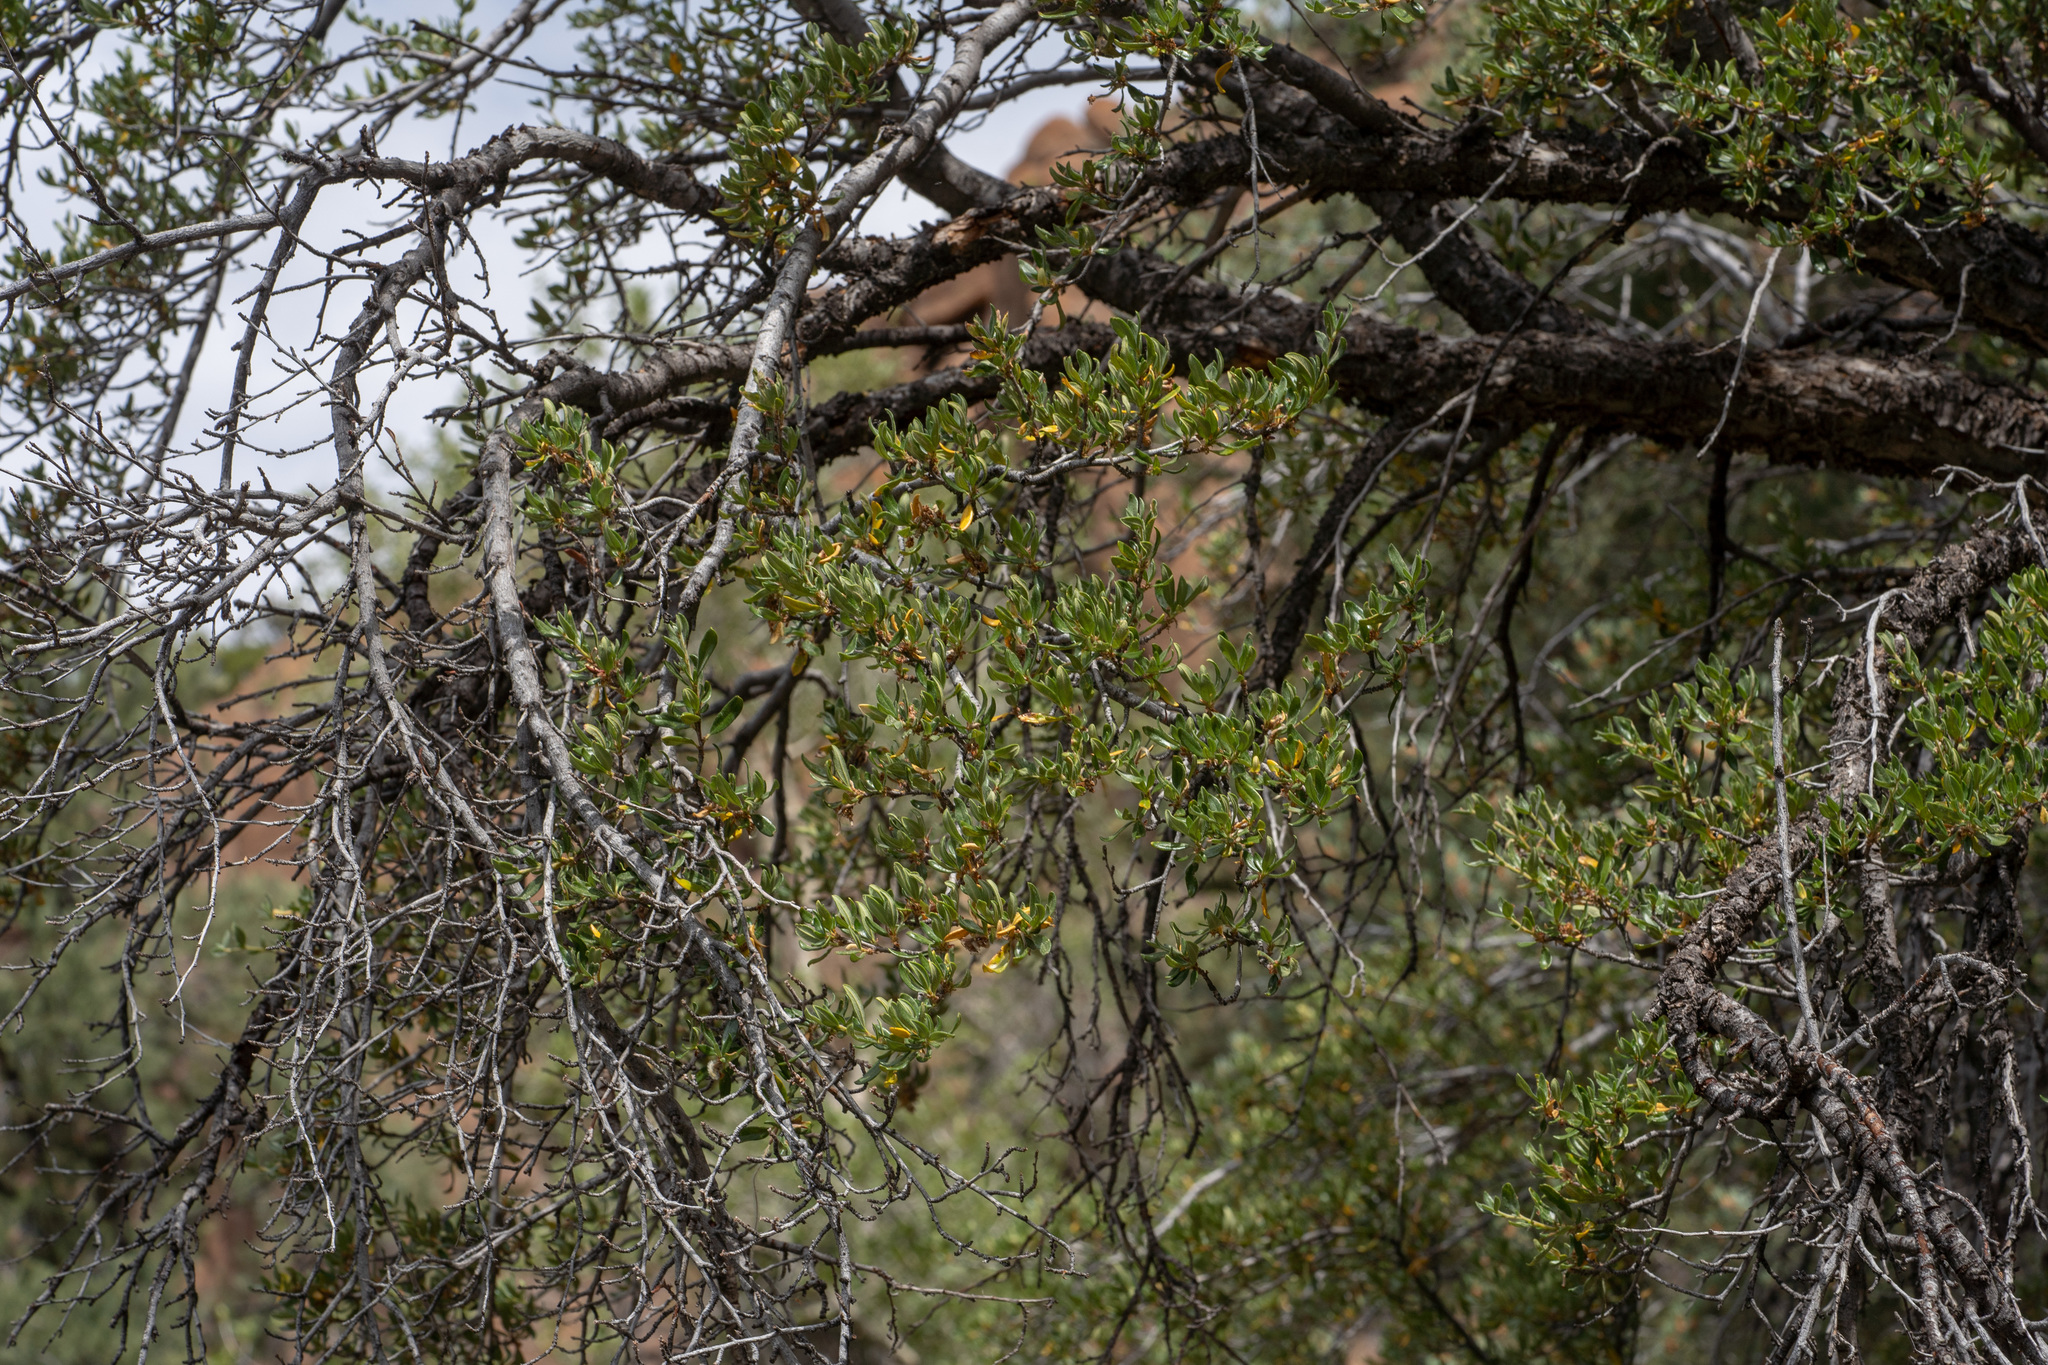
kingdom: Plantae
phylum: Tracheophyta
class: Magnoliopsida
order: Rosales
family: Rosaceae
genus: Cercocarpus
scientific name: Cercocarpus ledifolius
